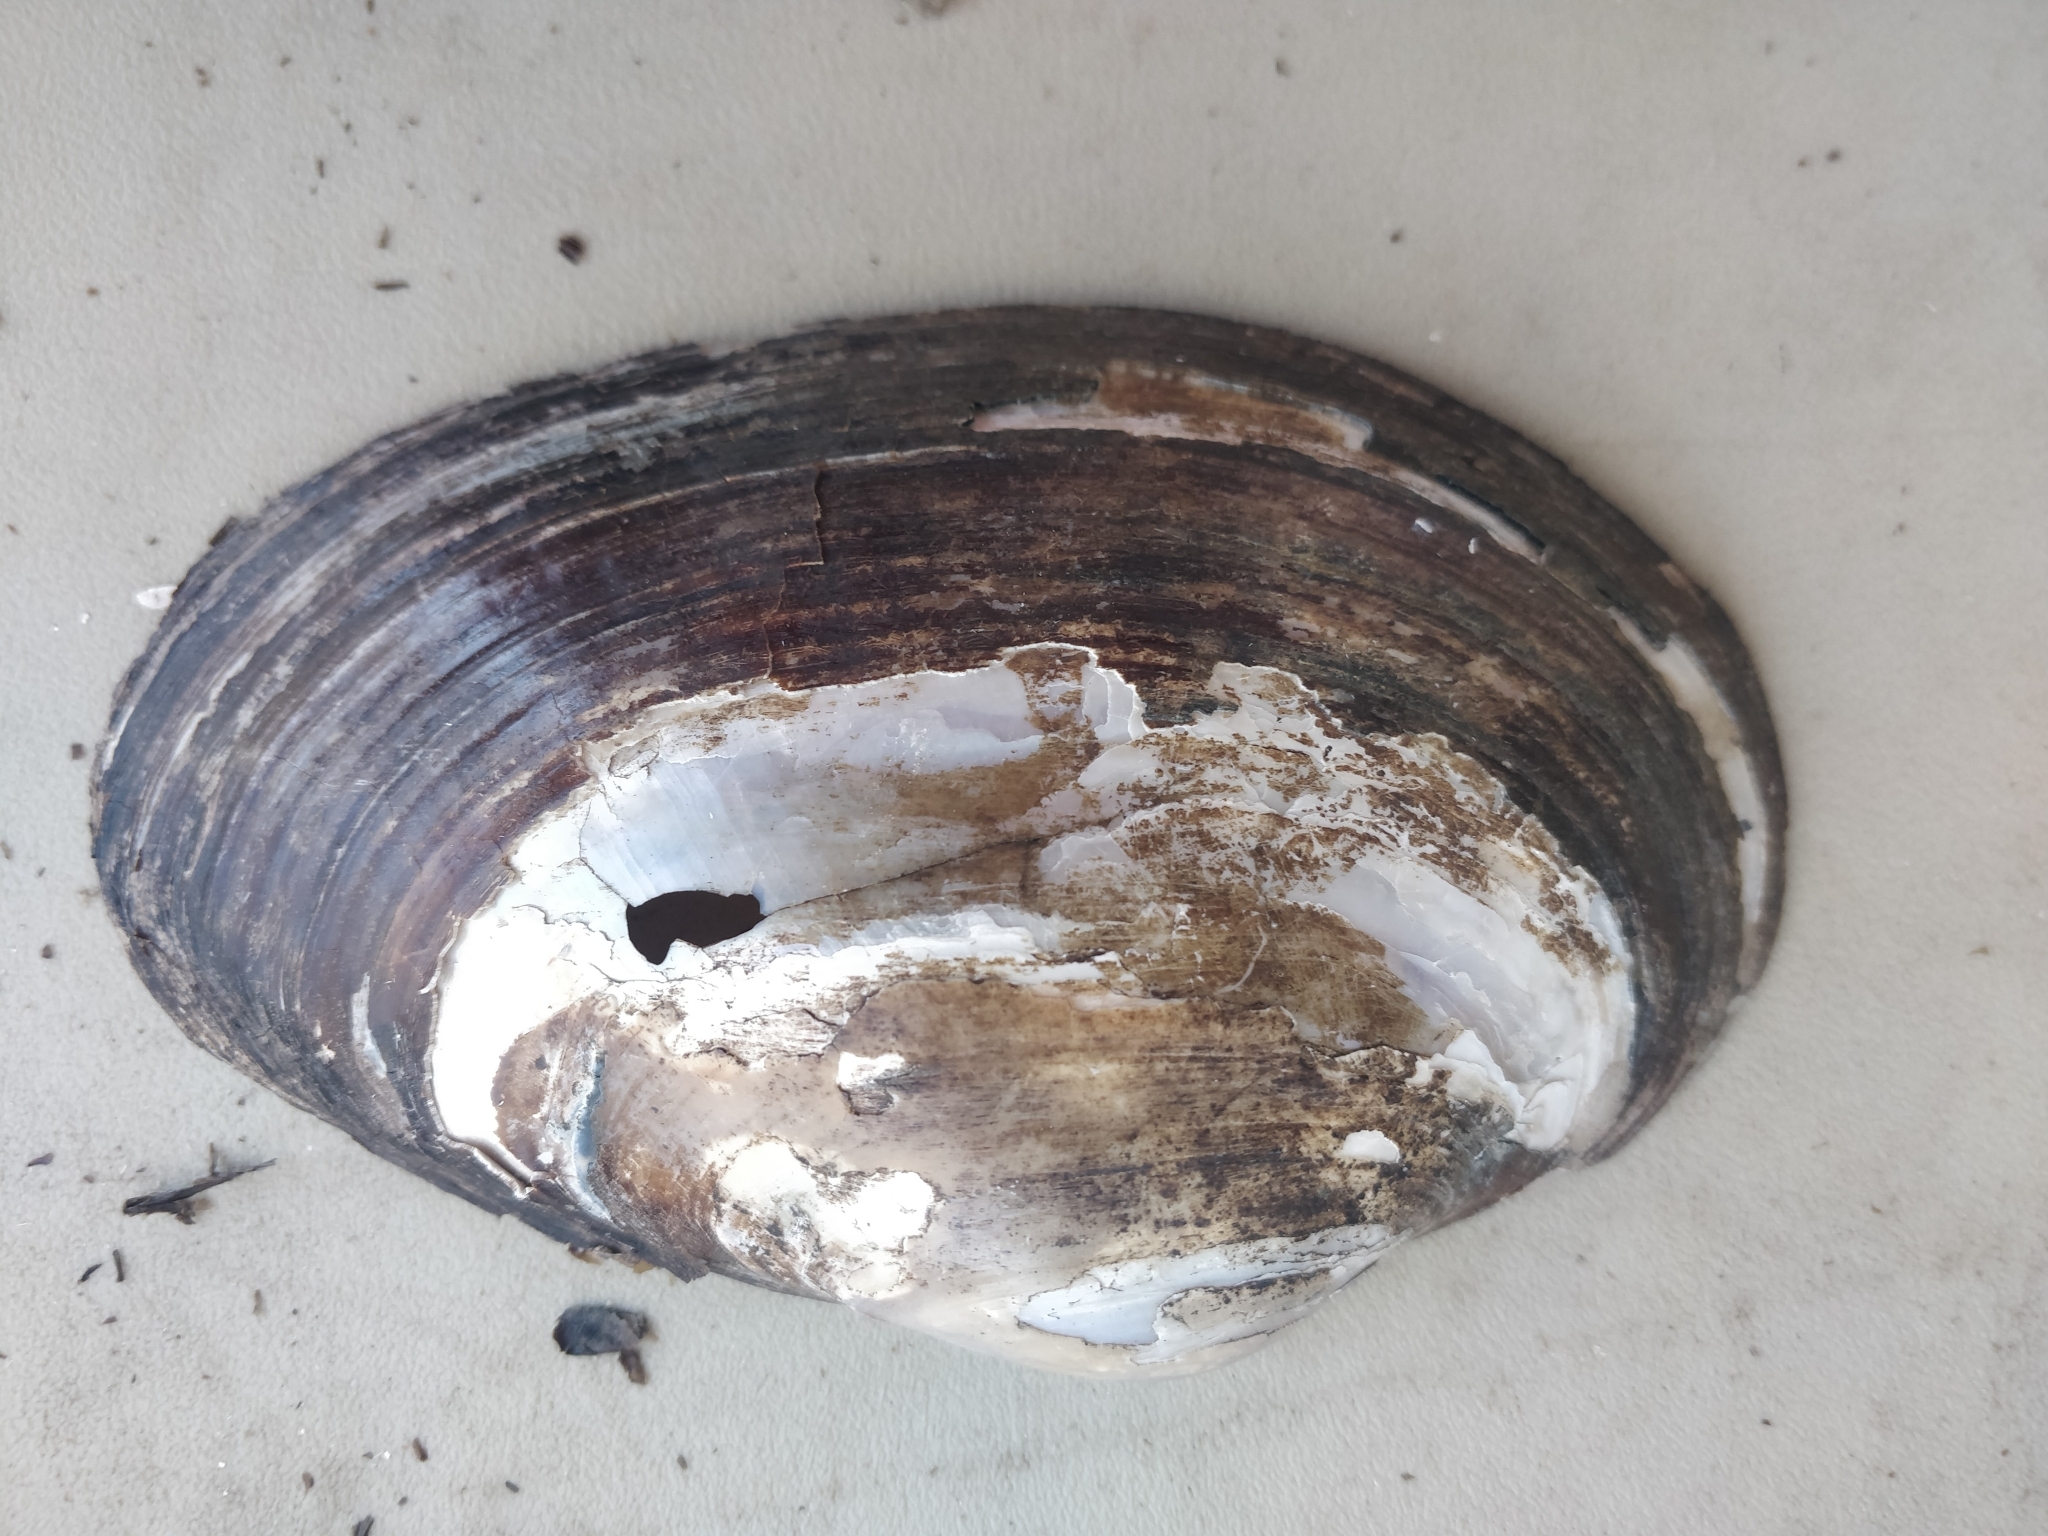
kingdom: Animalia
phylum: Mollusca
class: Bivalvia
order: Unionida
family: Unionidae
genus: Pyganodon
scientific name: Pyganodon grandis
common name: Giant floater
